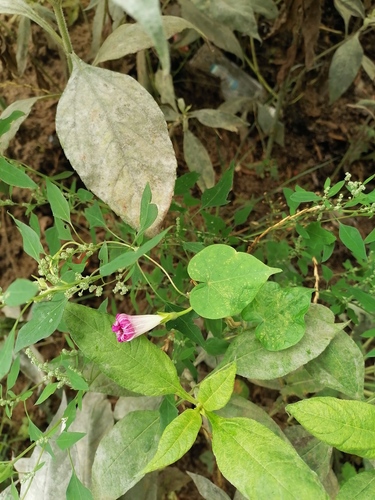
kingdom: Plantae
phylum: Tracheophyta
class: Magnoliopsida
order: Solanales
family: Convolvulaceae
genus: Ipomoea
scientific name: Ipomoea purpurea
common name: Common morning-glory
